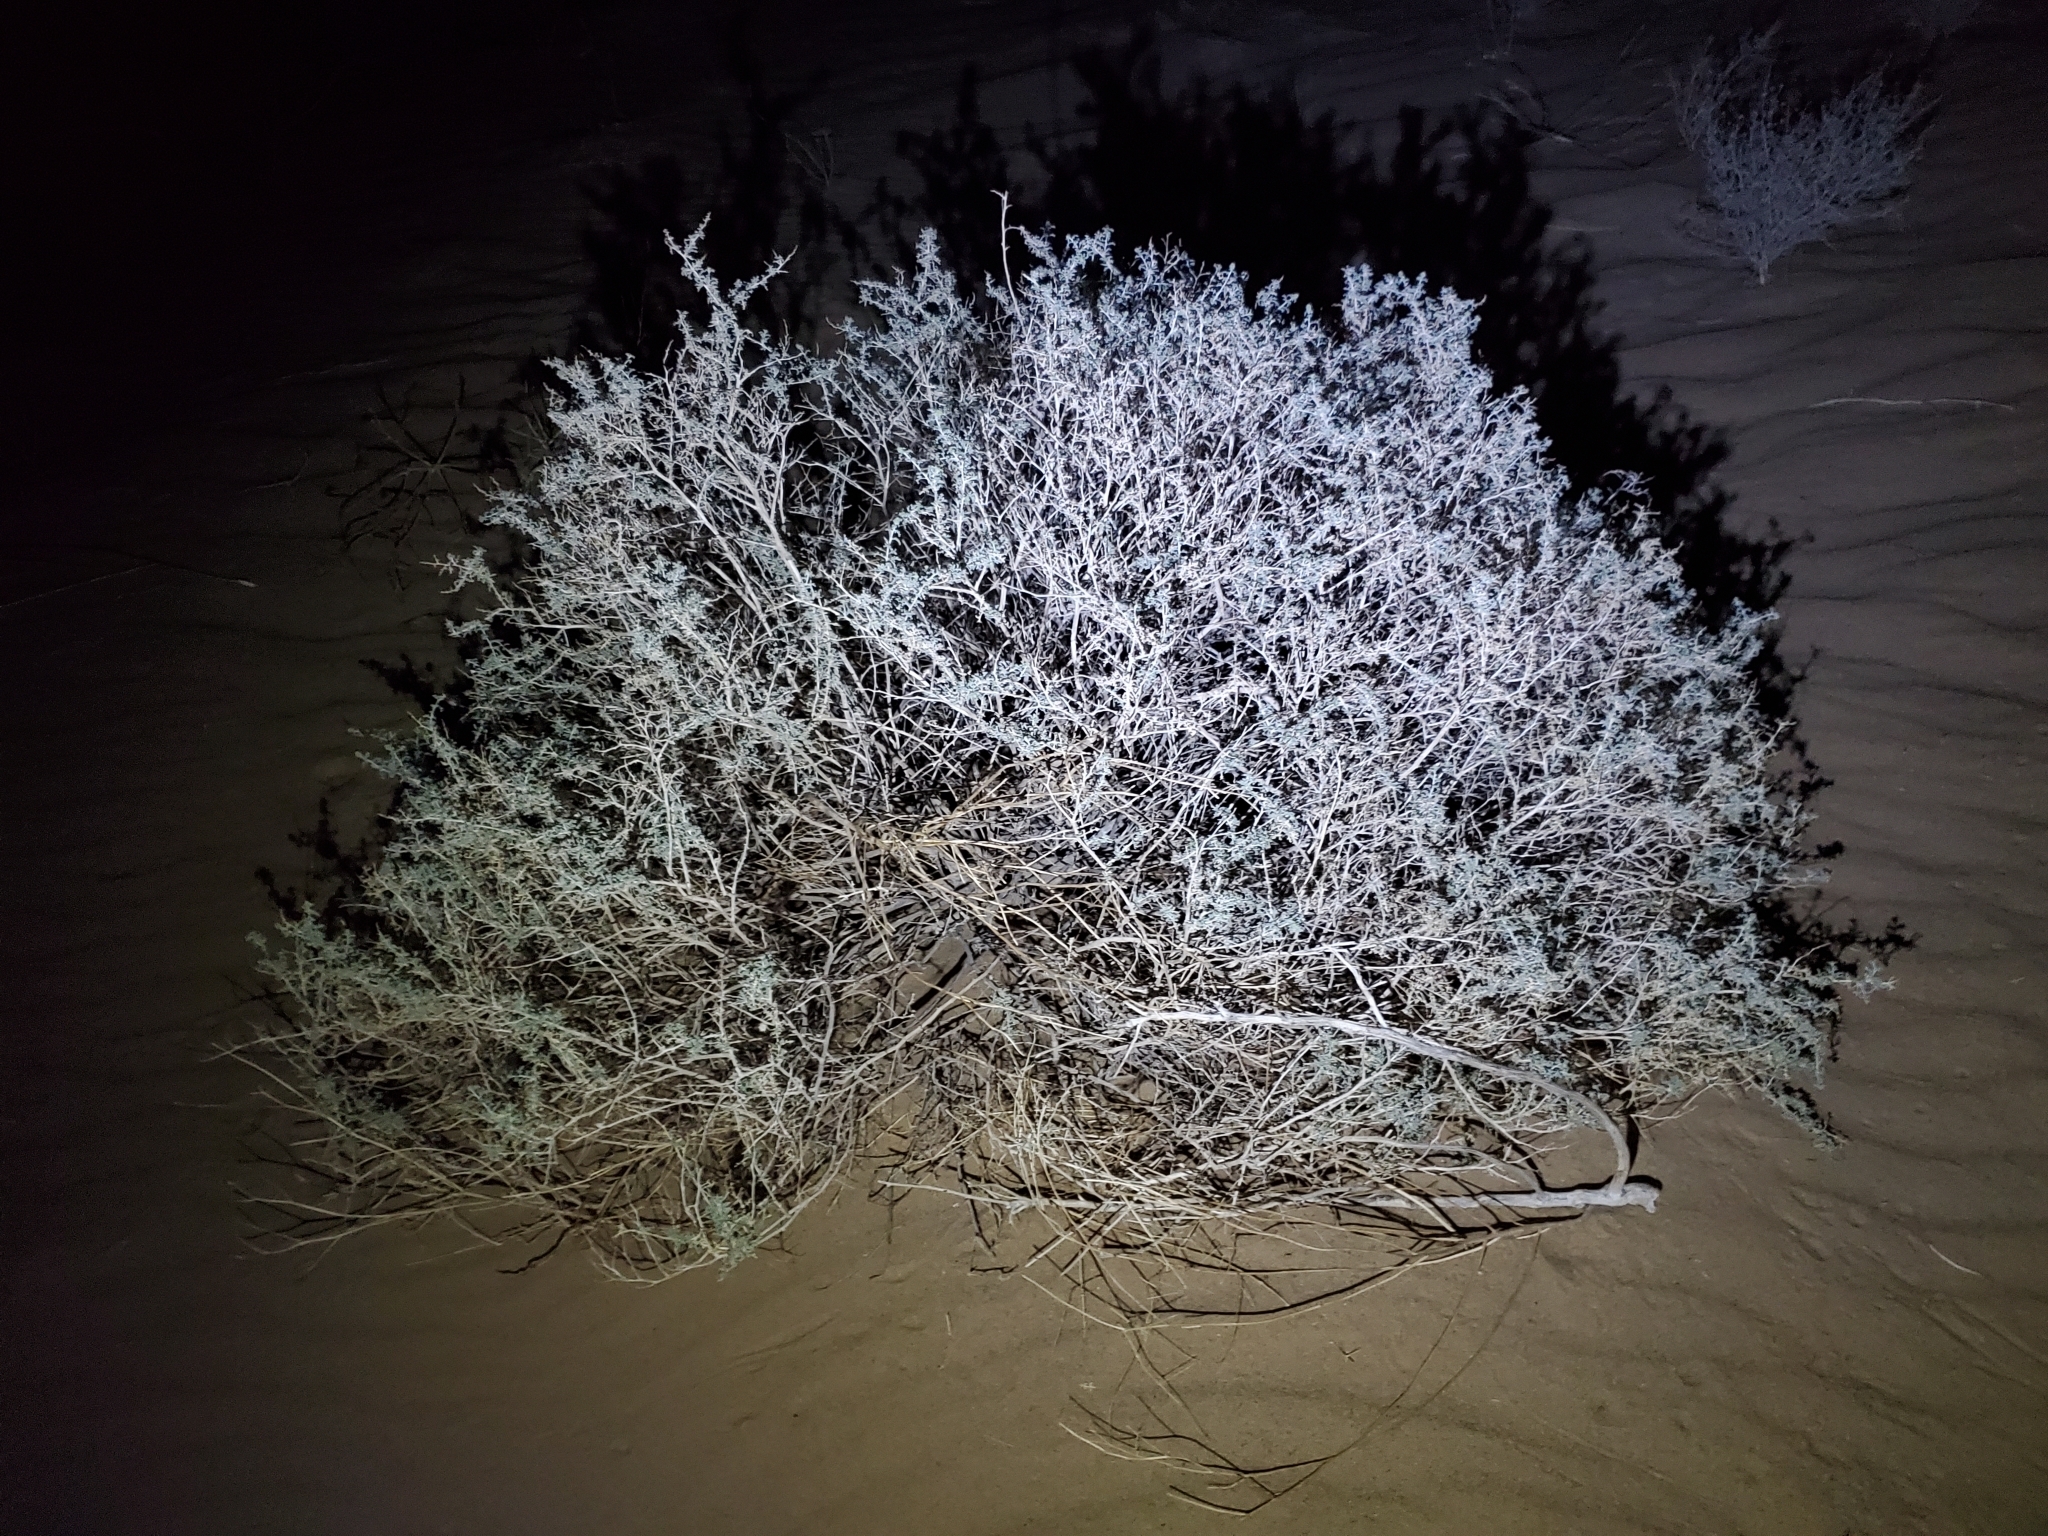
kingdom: Plantae
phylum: Tracheophyta
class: Magnoliopsida
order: Asterales
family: Asteraceae
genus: Ambrosia
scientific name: Ambrosia dumosa
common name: Bur-sage
